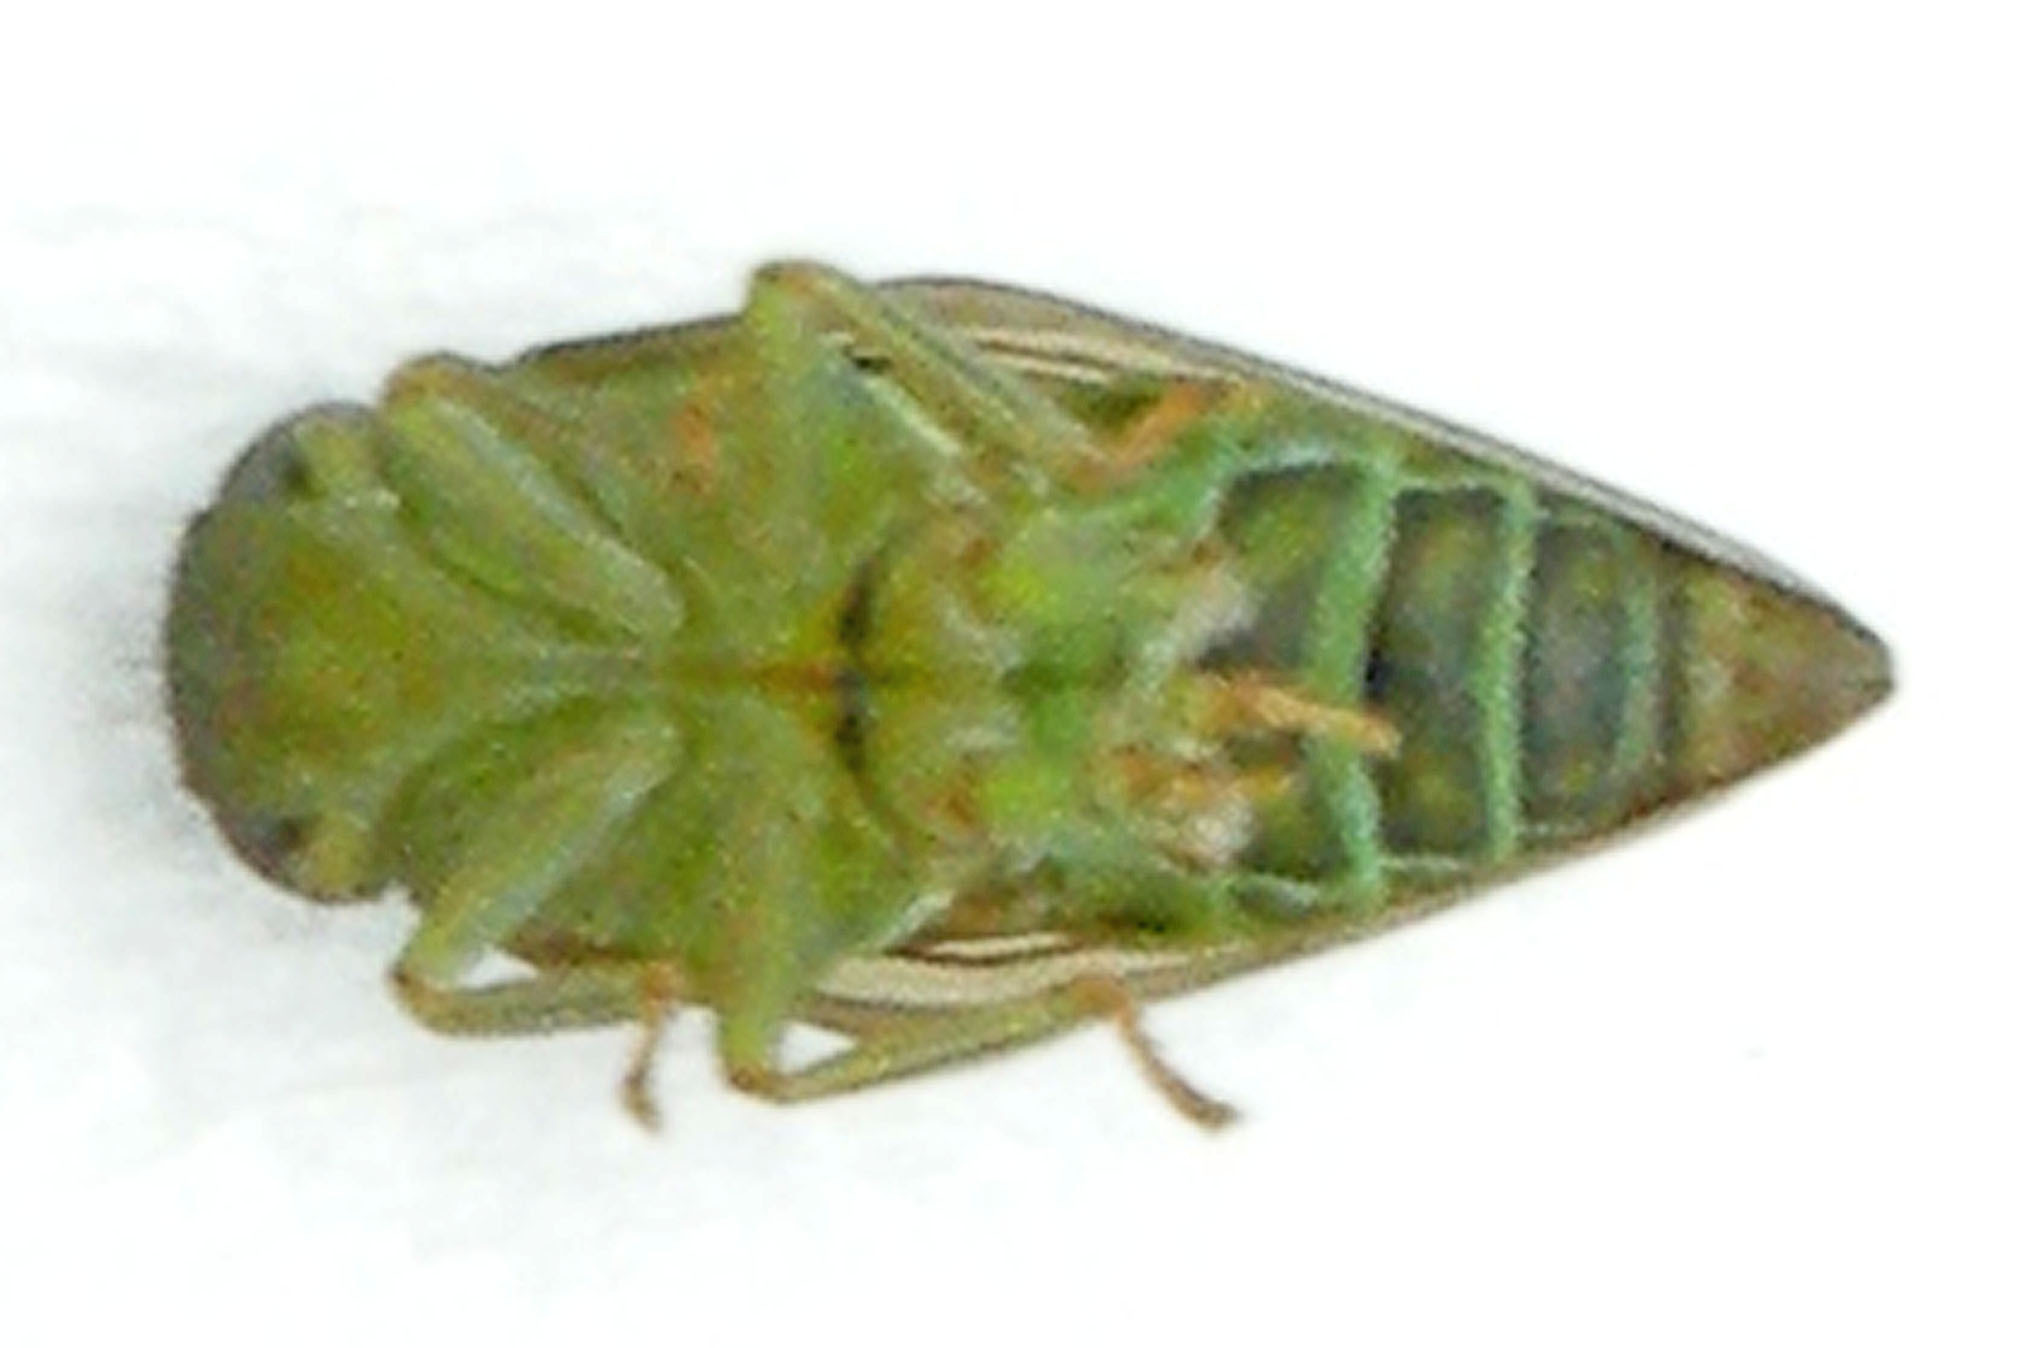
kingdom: Animalia
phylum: Arthropoda
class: Insecta
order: Hemiptera
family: Issidae
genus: Aplos
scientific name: Aplos simplex
